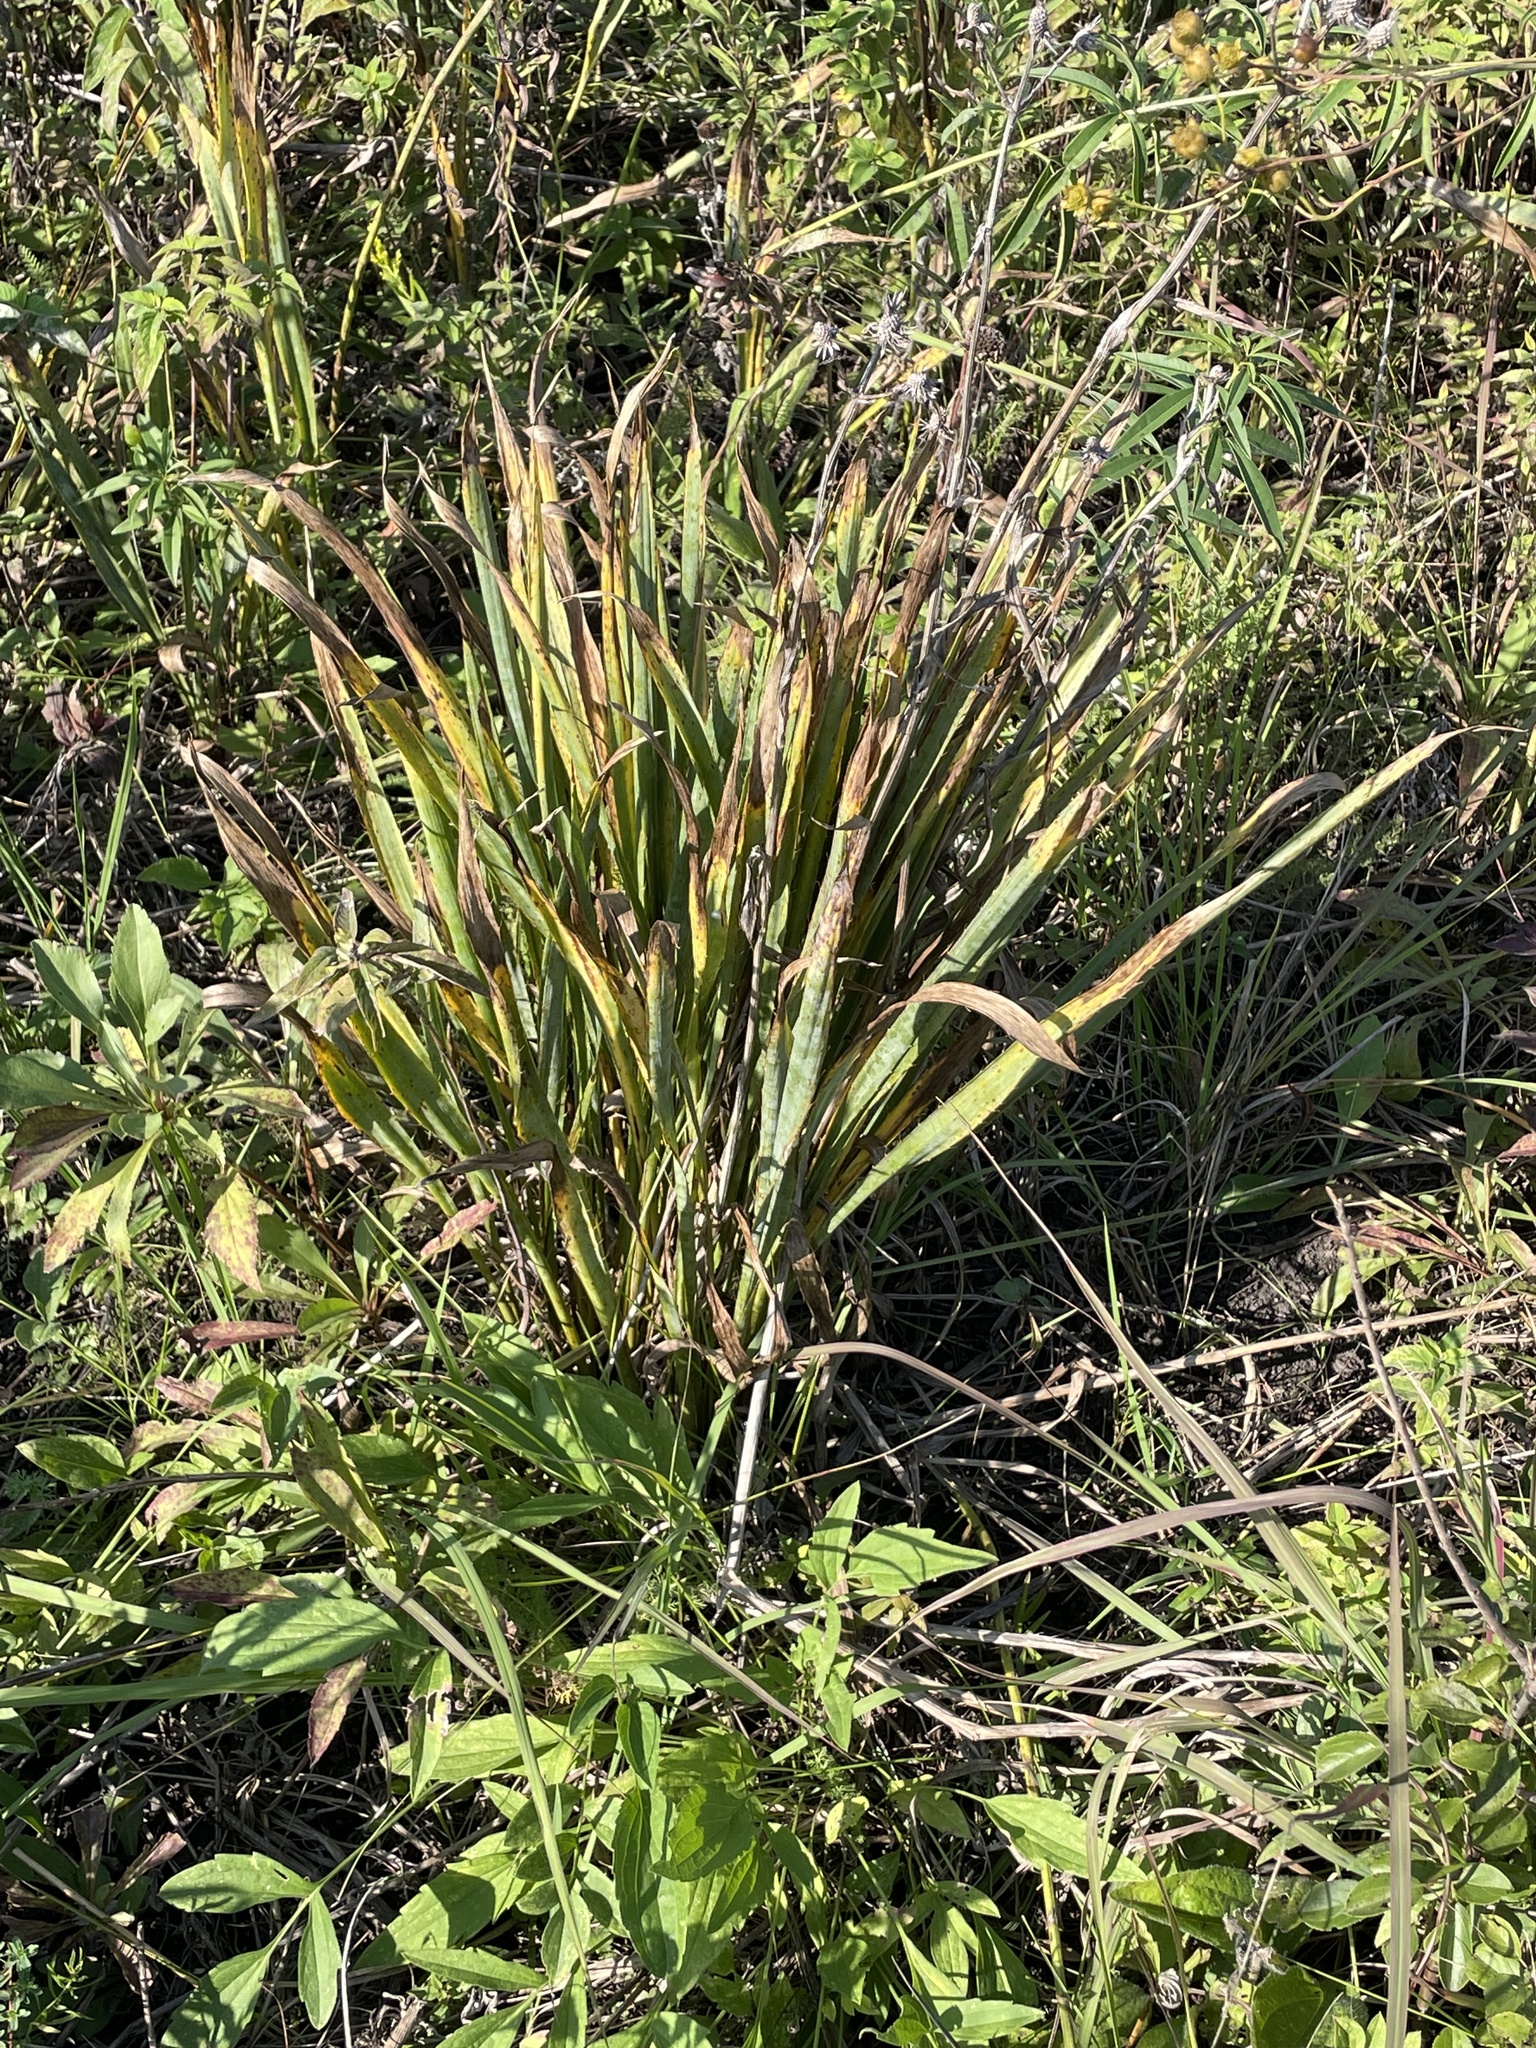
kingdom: Plantae
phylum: Tracheophyta
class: Magnoliopsida
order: Apiales
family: Apiaceae
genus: Eryngium
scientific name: Eryngium yuccifolium
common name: Button eryngo
